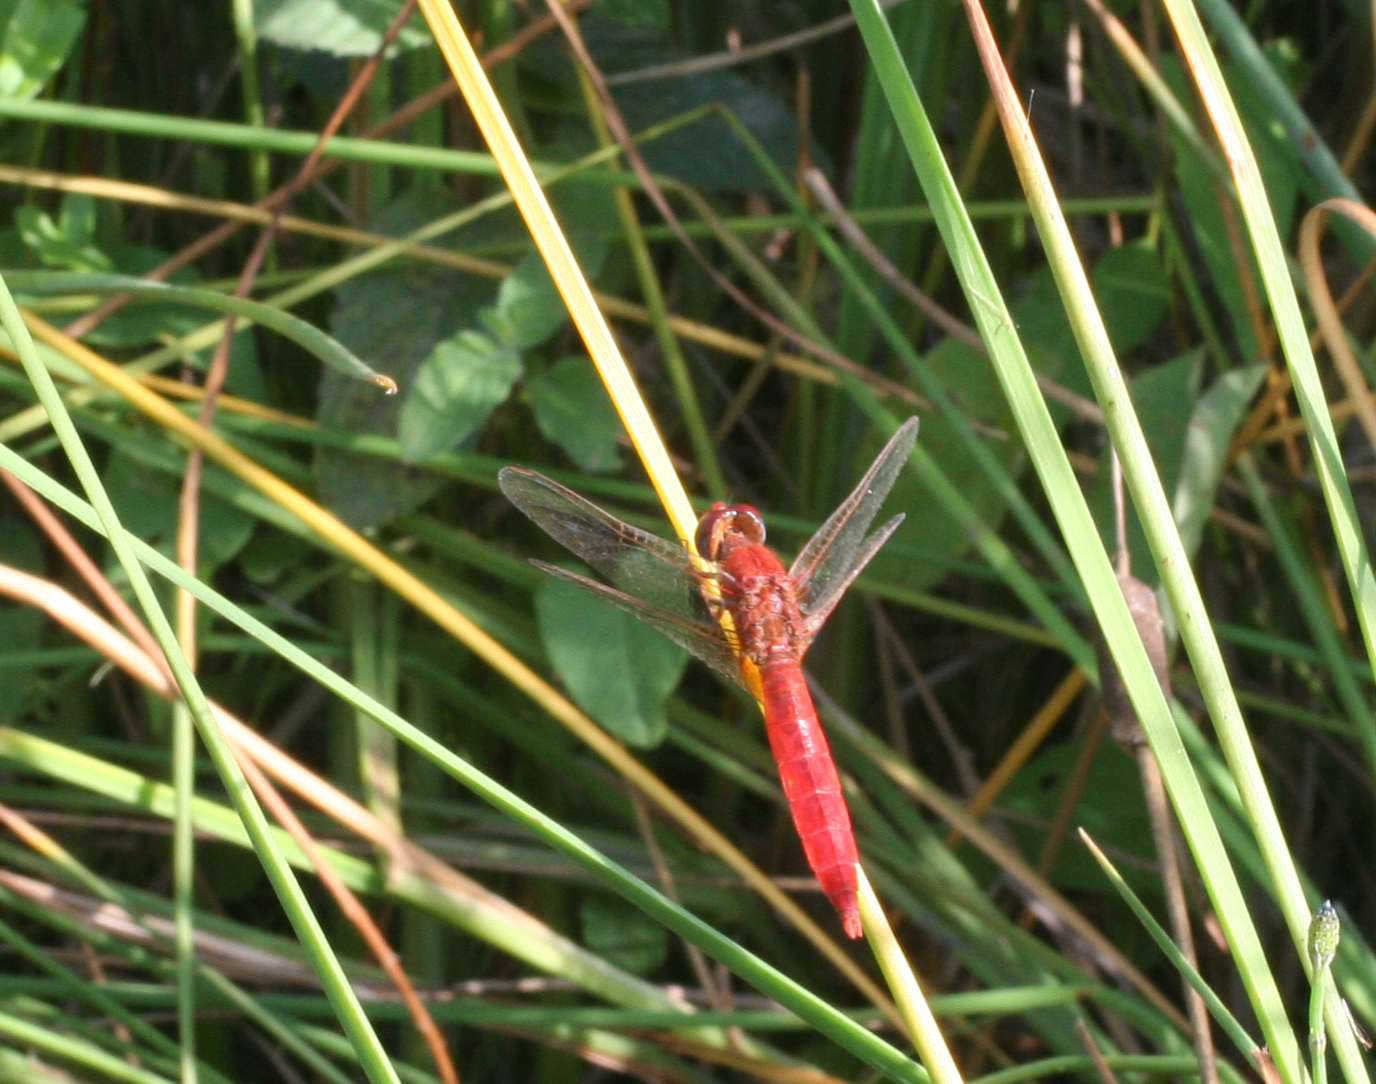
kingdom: Animalia
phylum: Arthropoda
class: Insecta
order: Odonata
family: Libellulidae
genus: Crocothemis
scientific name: Crocothemis erythraea
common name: Scarlet dragonfly
